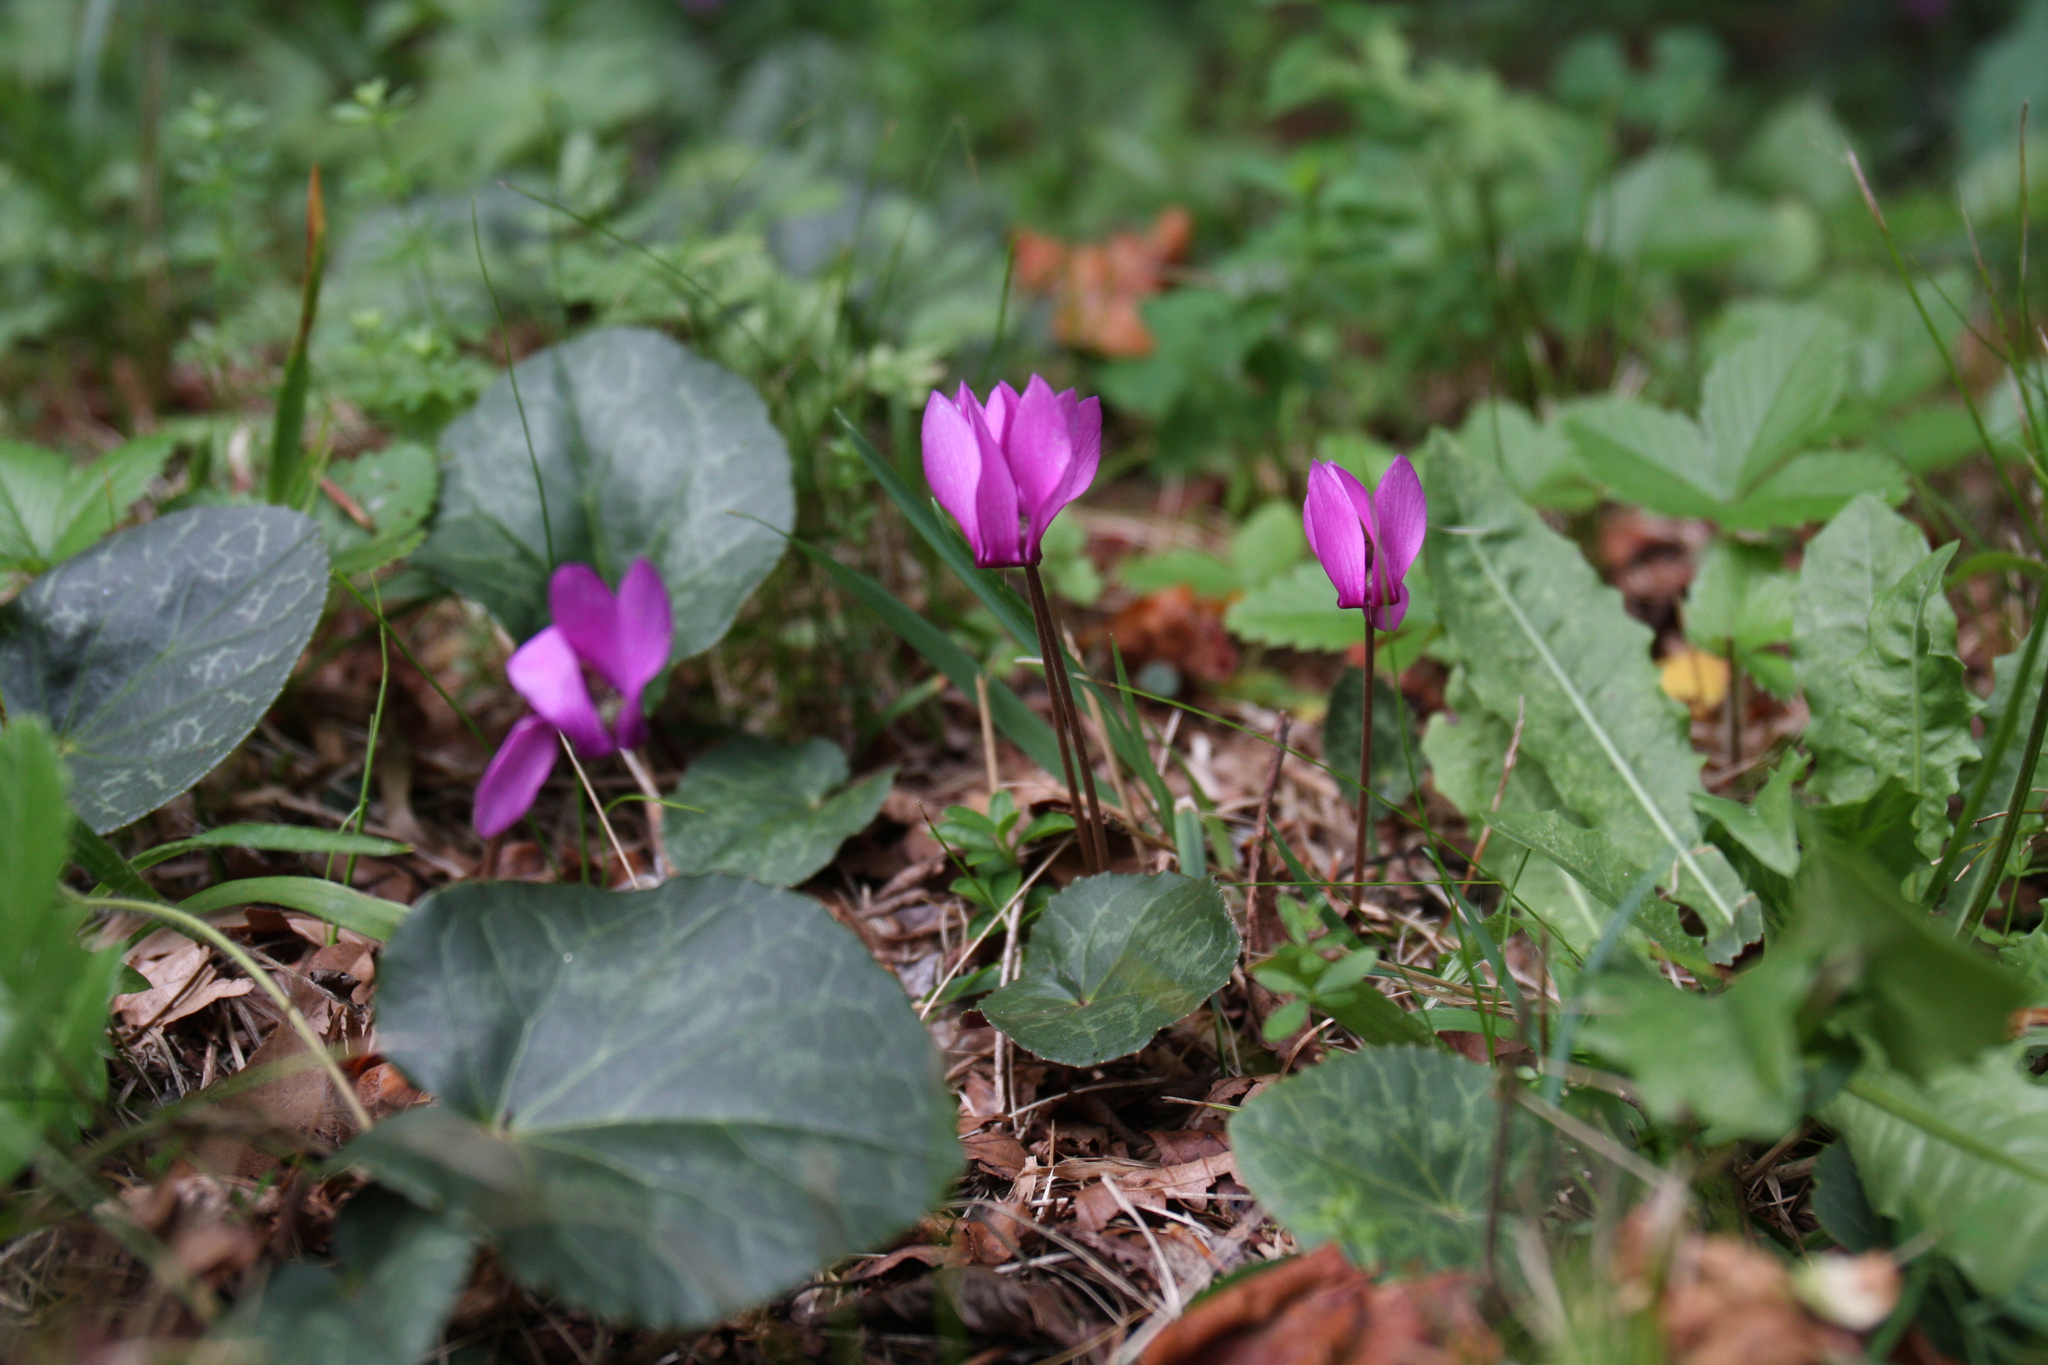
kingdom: Plantae
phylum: Tracheophyta
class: Magnoliopsida
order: Ericales
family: Primulaceae
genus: Cyclamen
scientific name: Cyclamen purpurascens
